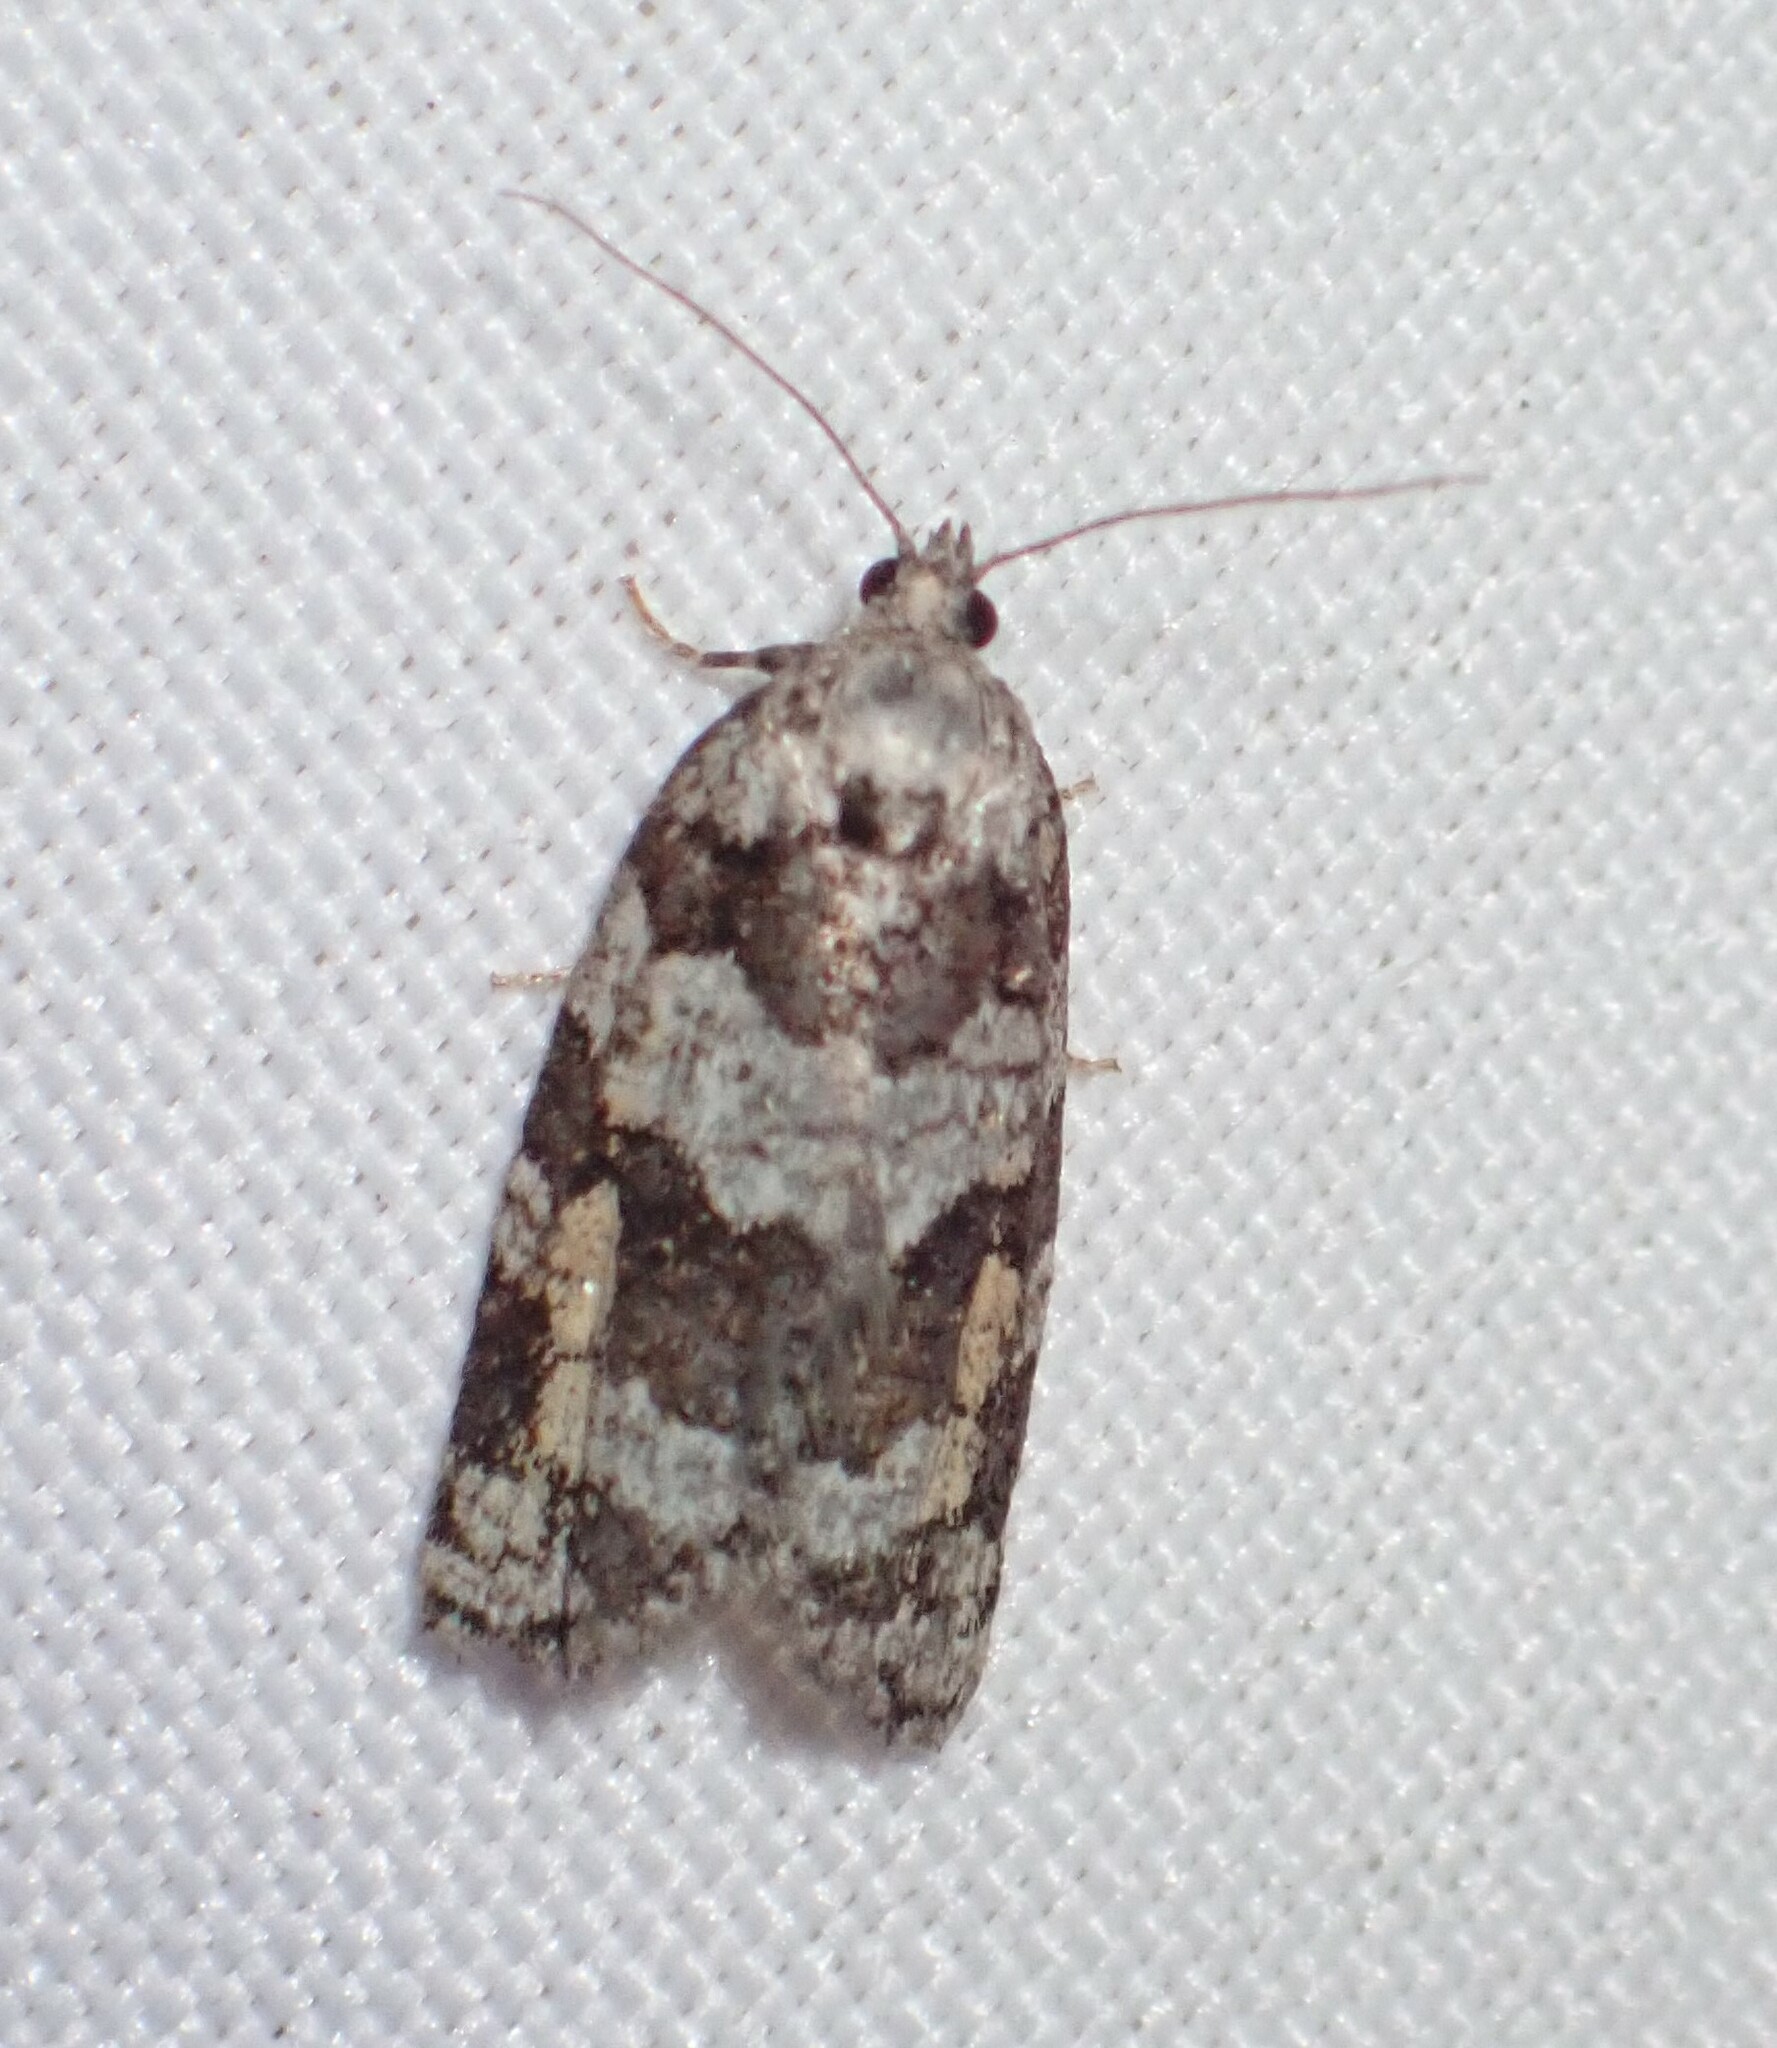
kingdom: Animalia
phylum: Arthropoda
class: Insecta
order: Lepidoptera
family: Tortricidae
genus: Argyrotaenia
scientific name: Argyrotaenia provana
